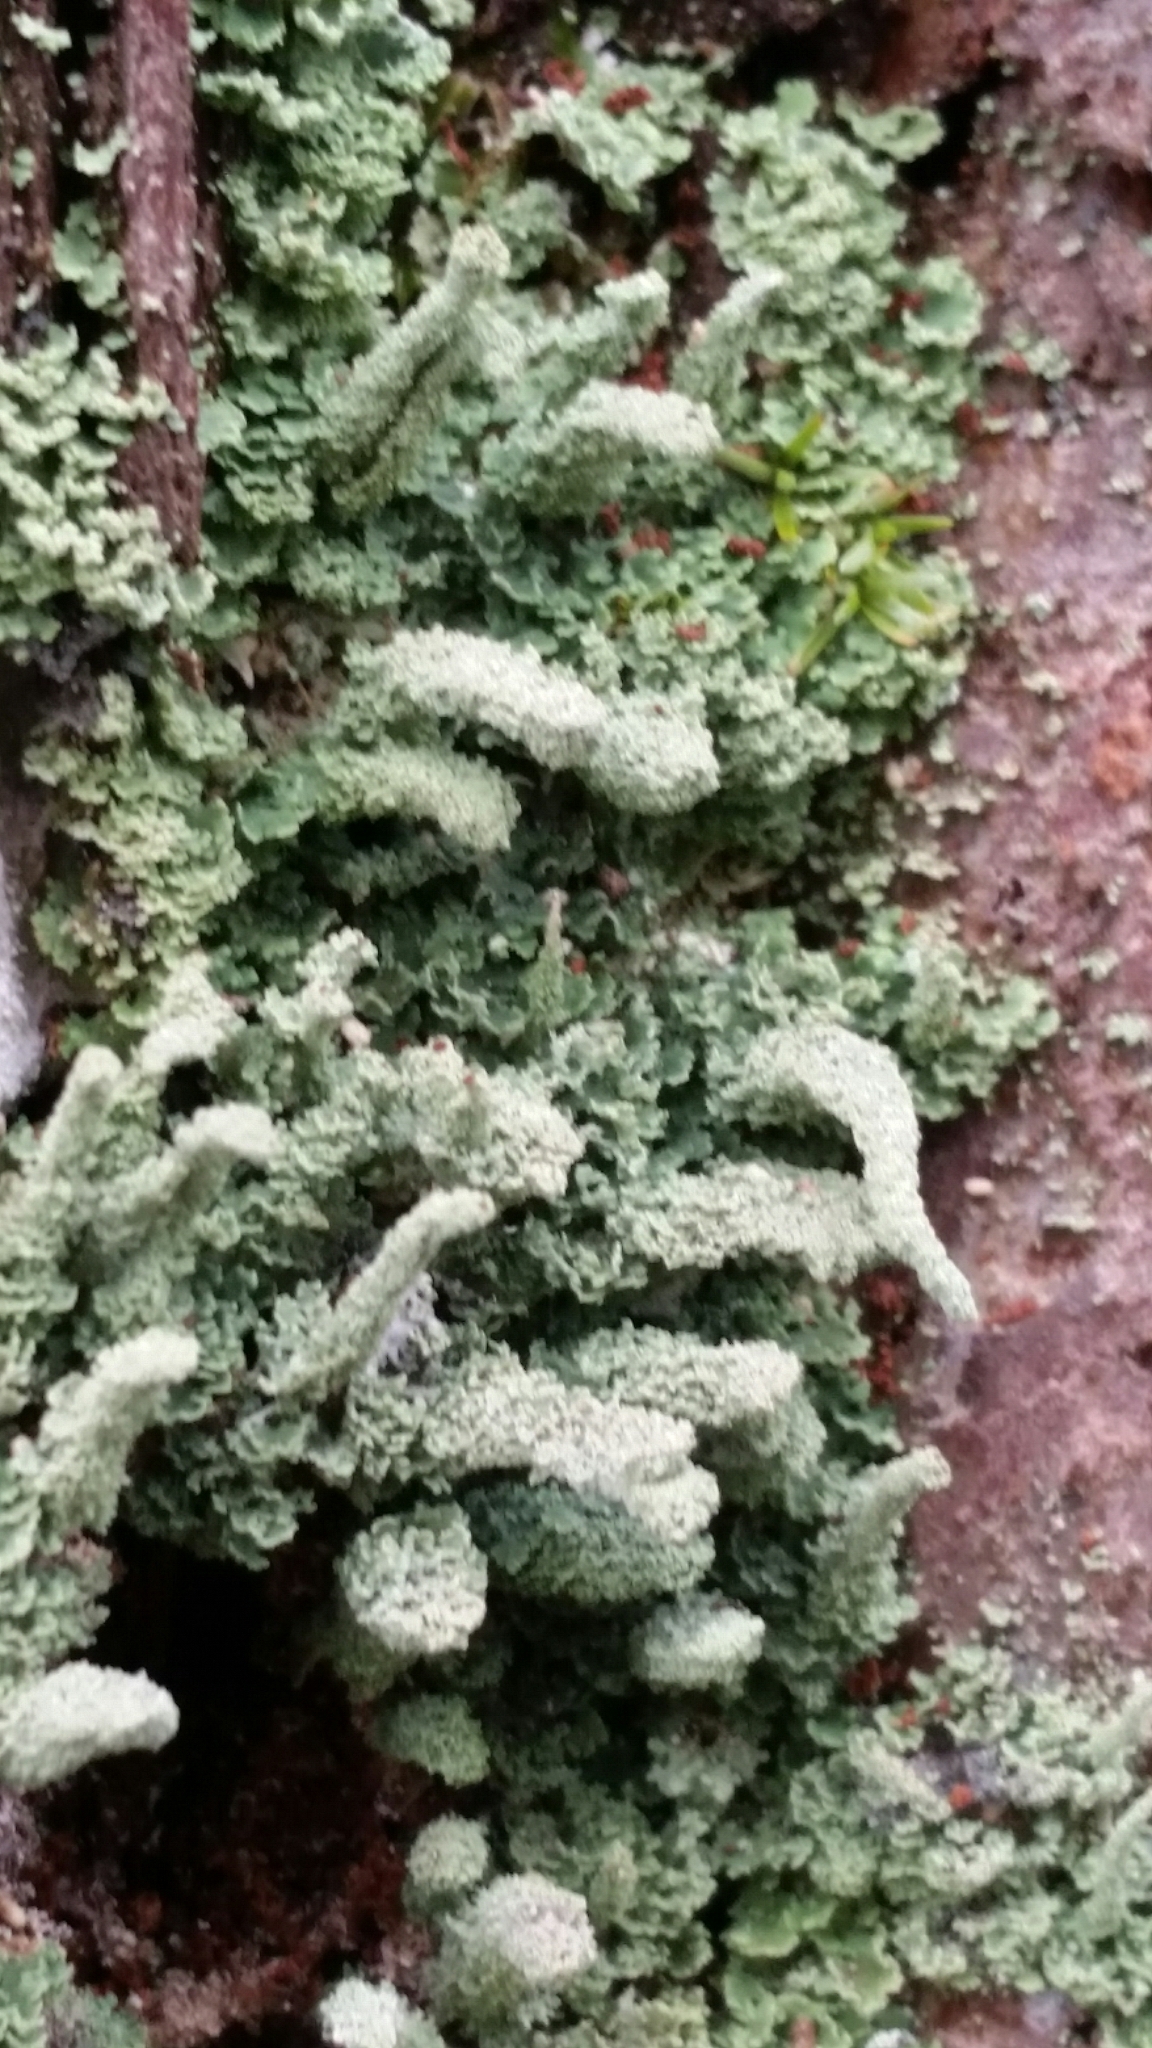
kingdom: Fungi
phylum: Ascomycota
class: Lecanoromycetes
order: Lecanorales
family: Cladoniaceae
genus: Cladonia
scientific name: Cladonia beaumontii
